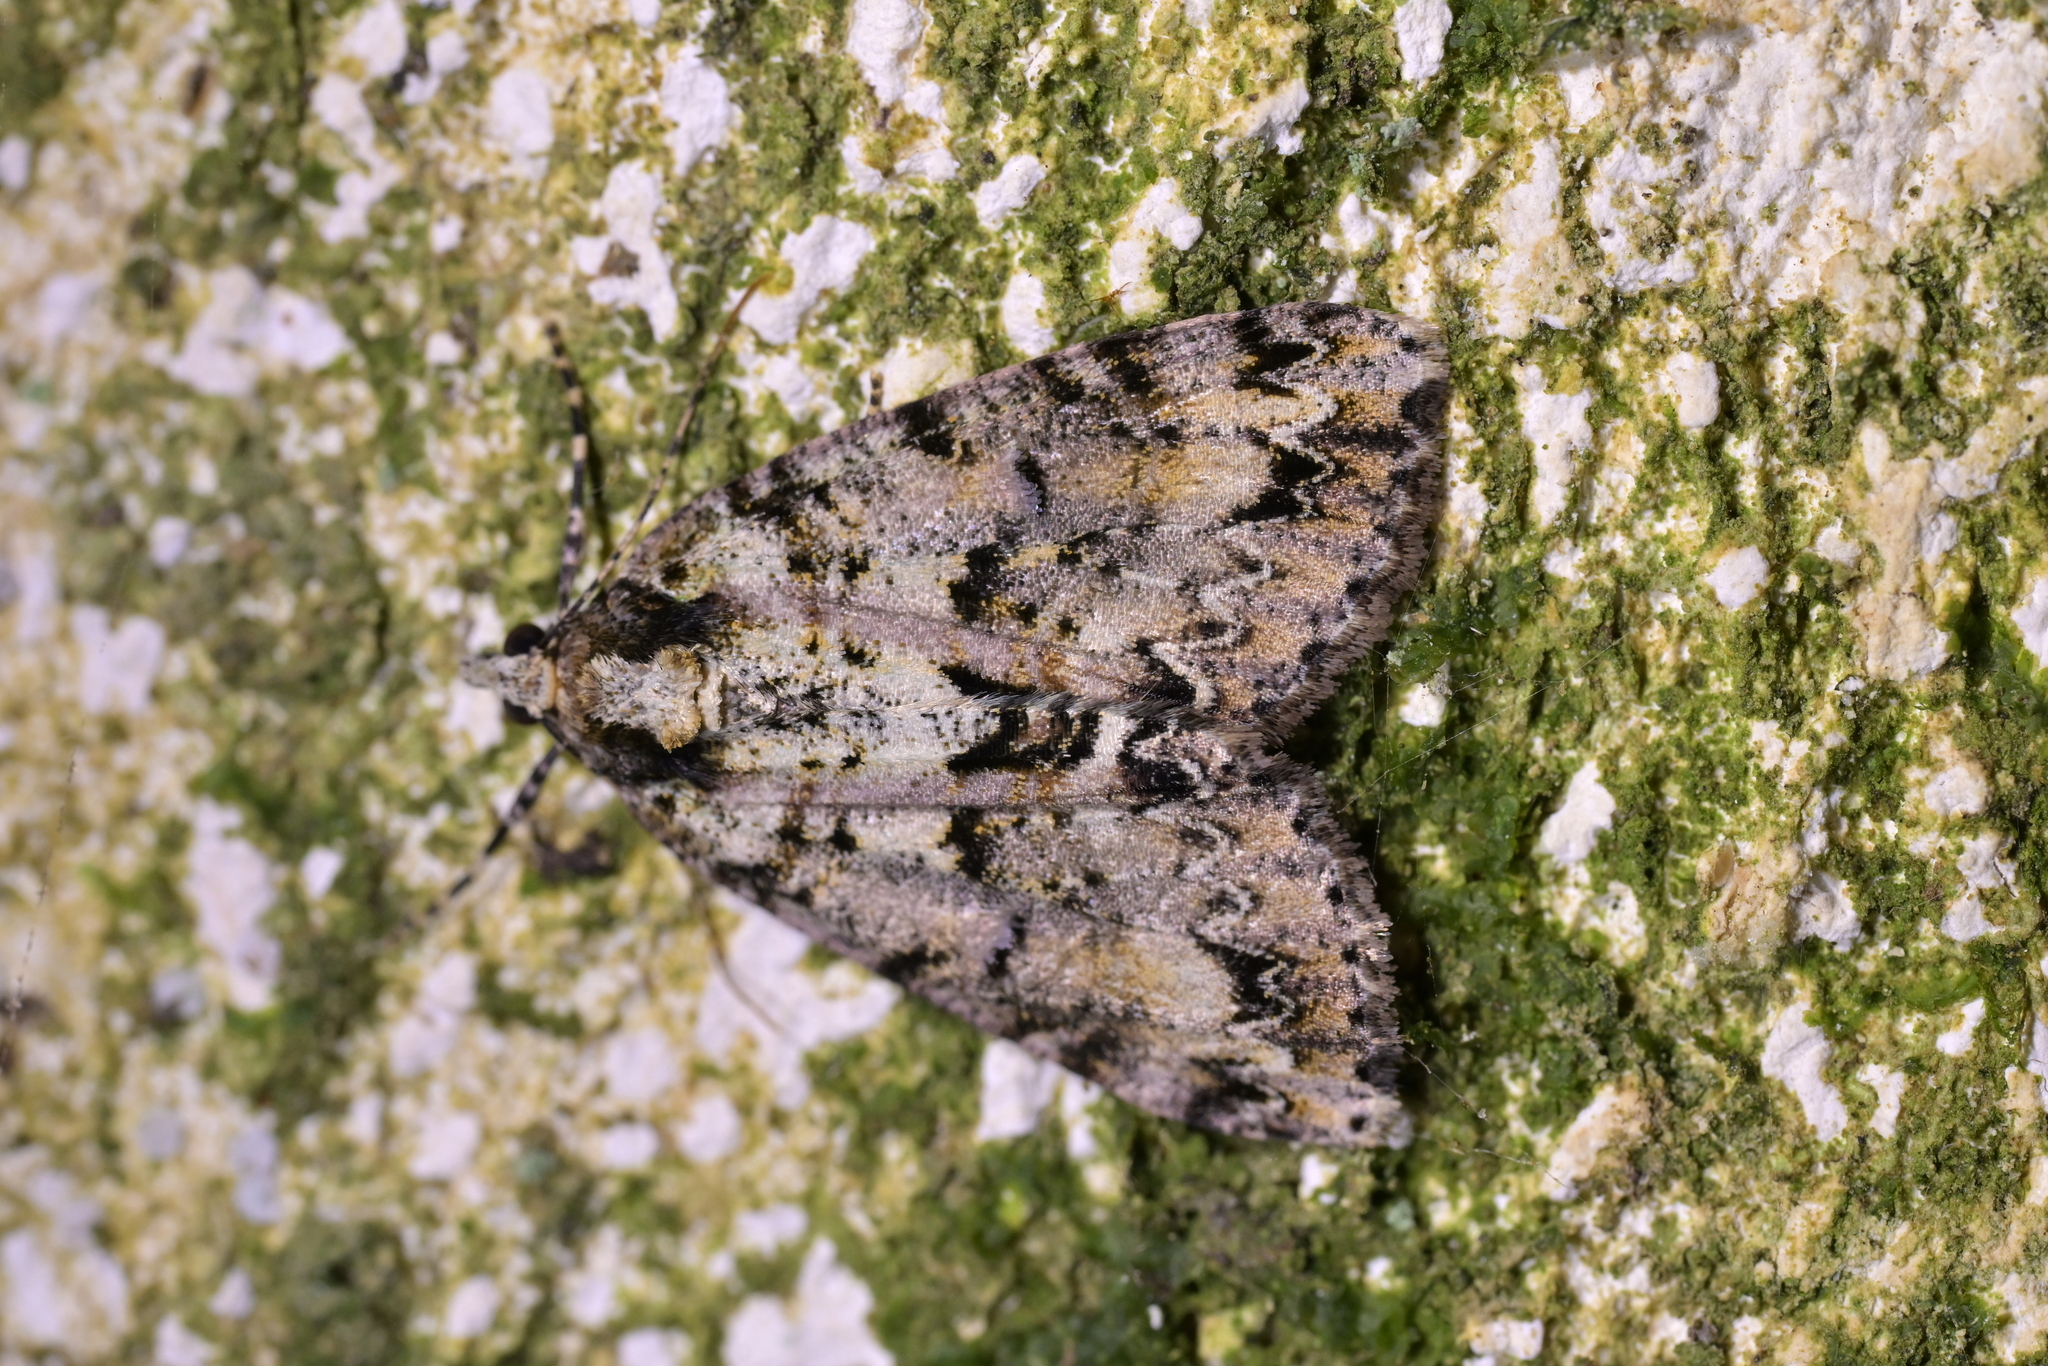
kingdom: Animalia
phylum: Arthropoda
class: Insecta
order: Lepidoptera
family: Geometridae
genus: Pseudocoremia
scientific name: Pseudocoremia suavis
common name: Common forest looper
